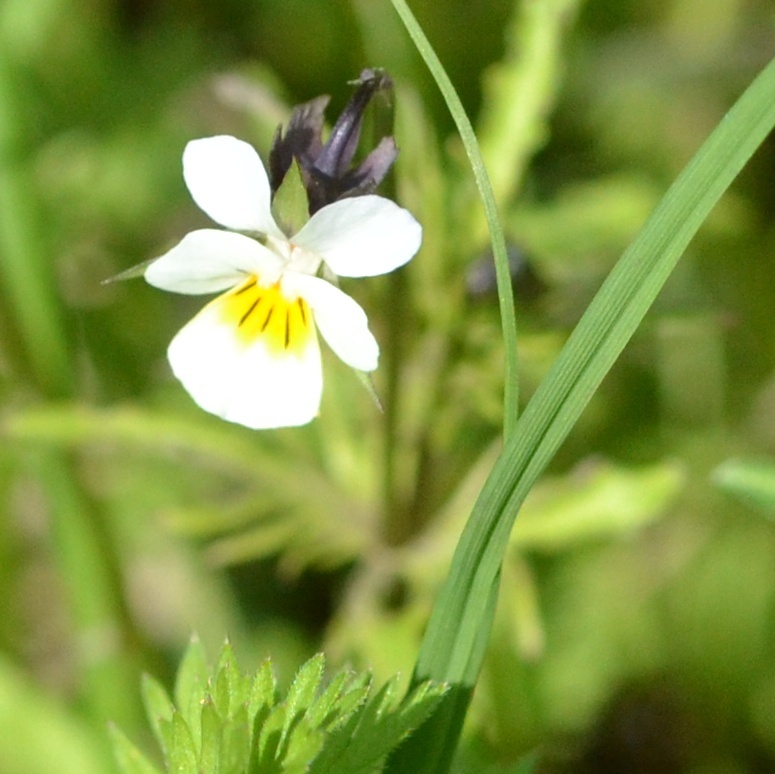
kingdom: Plantae
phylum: Tracheophyta
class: Magnoliopsida
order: Malpighiales
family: Violaceae
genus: Viola
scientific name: Viola arvensis
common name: Field pansy
